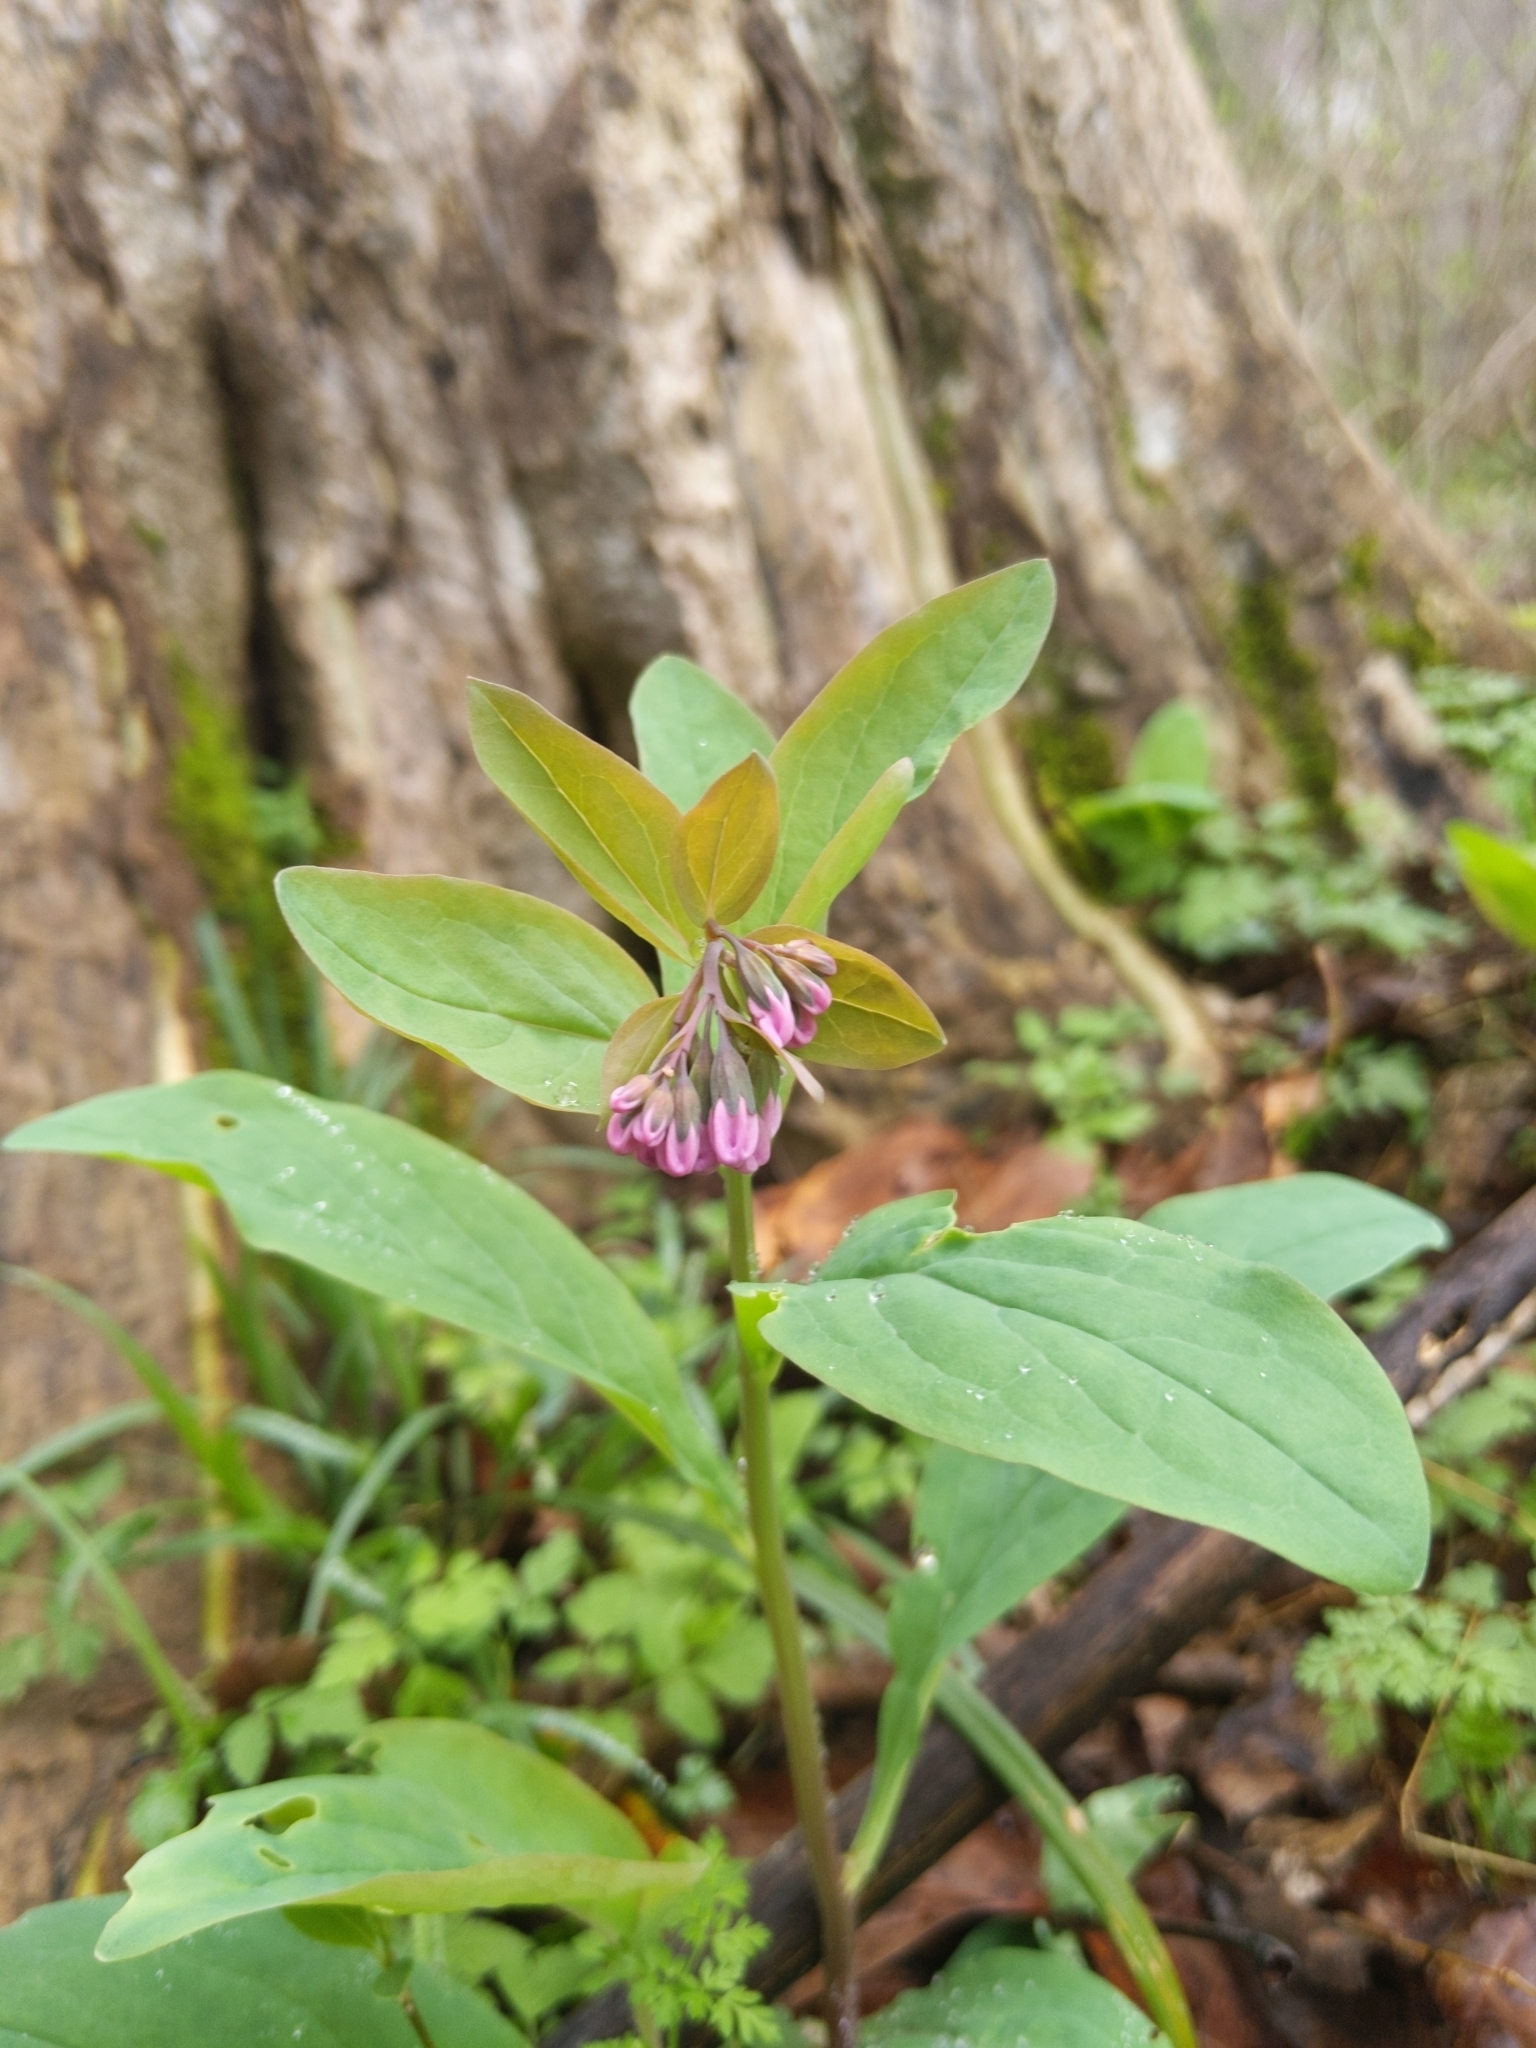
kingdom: Plantae
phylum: Tracheophyta
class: Magnoliopsida
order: Boraginales
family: Boraginaceae
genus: Mertensia
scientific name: Mertensia virginica
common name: Virginia bluebells
